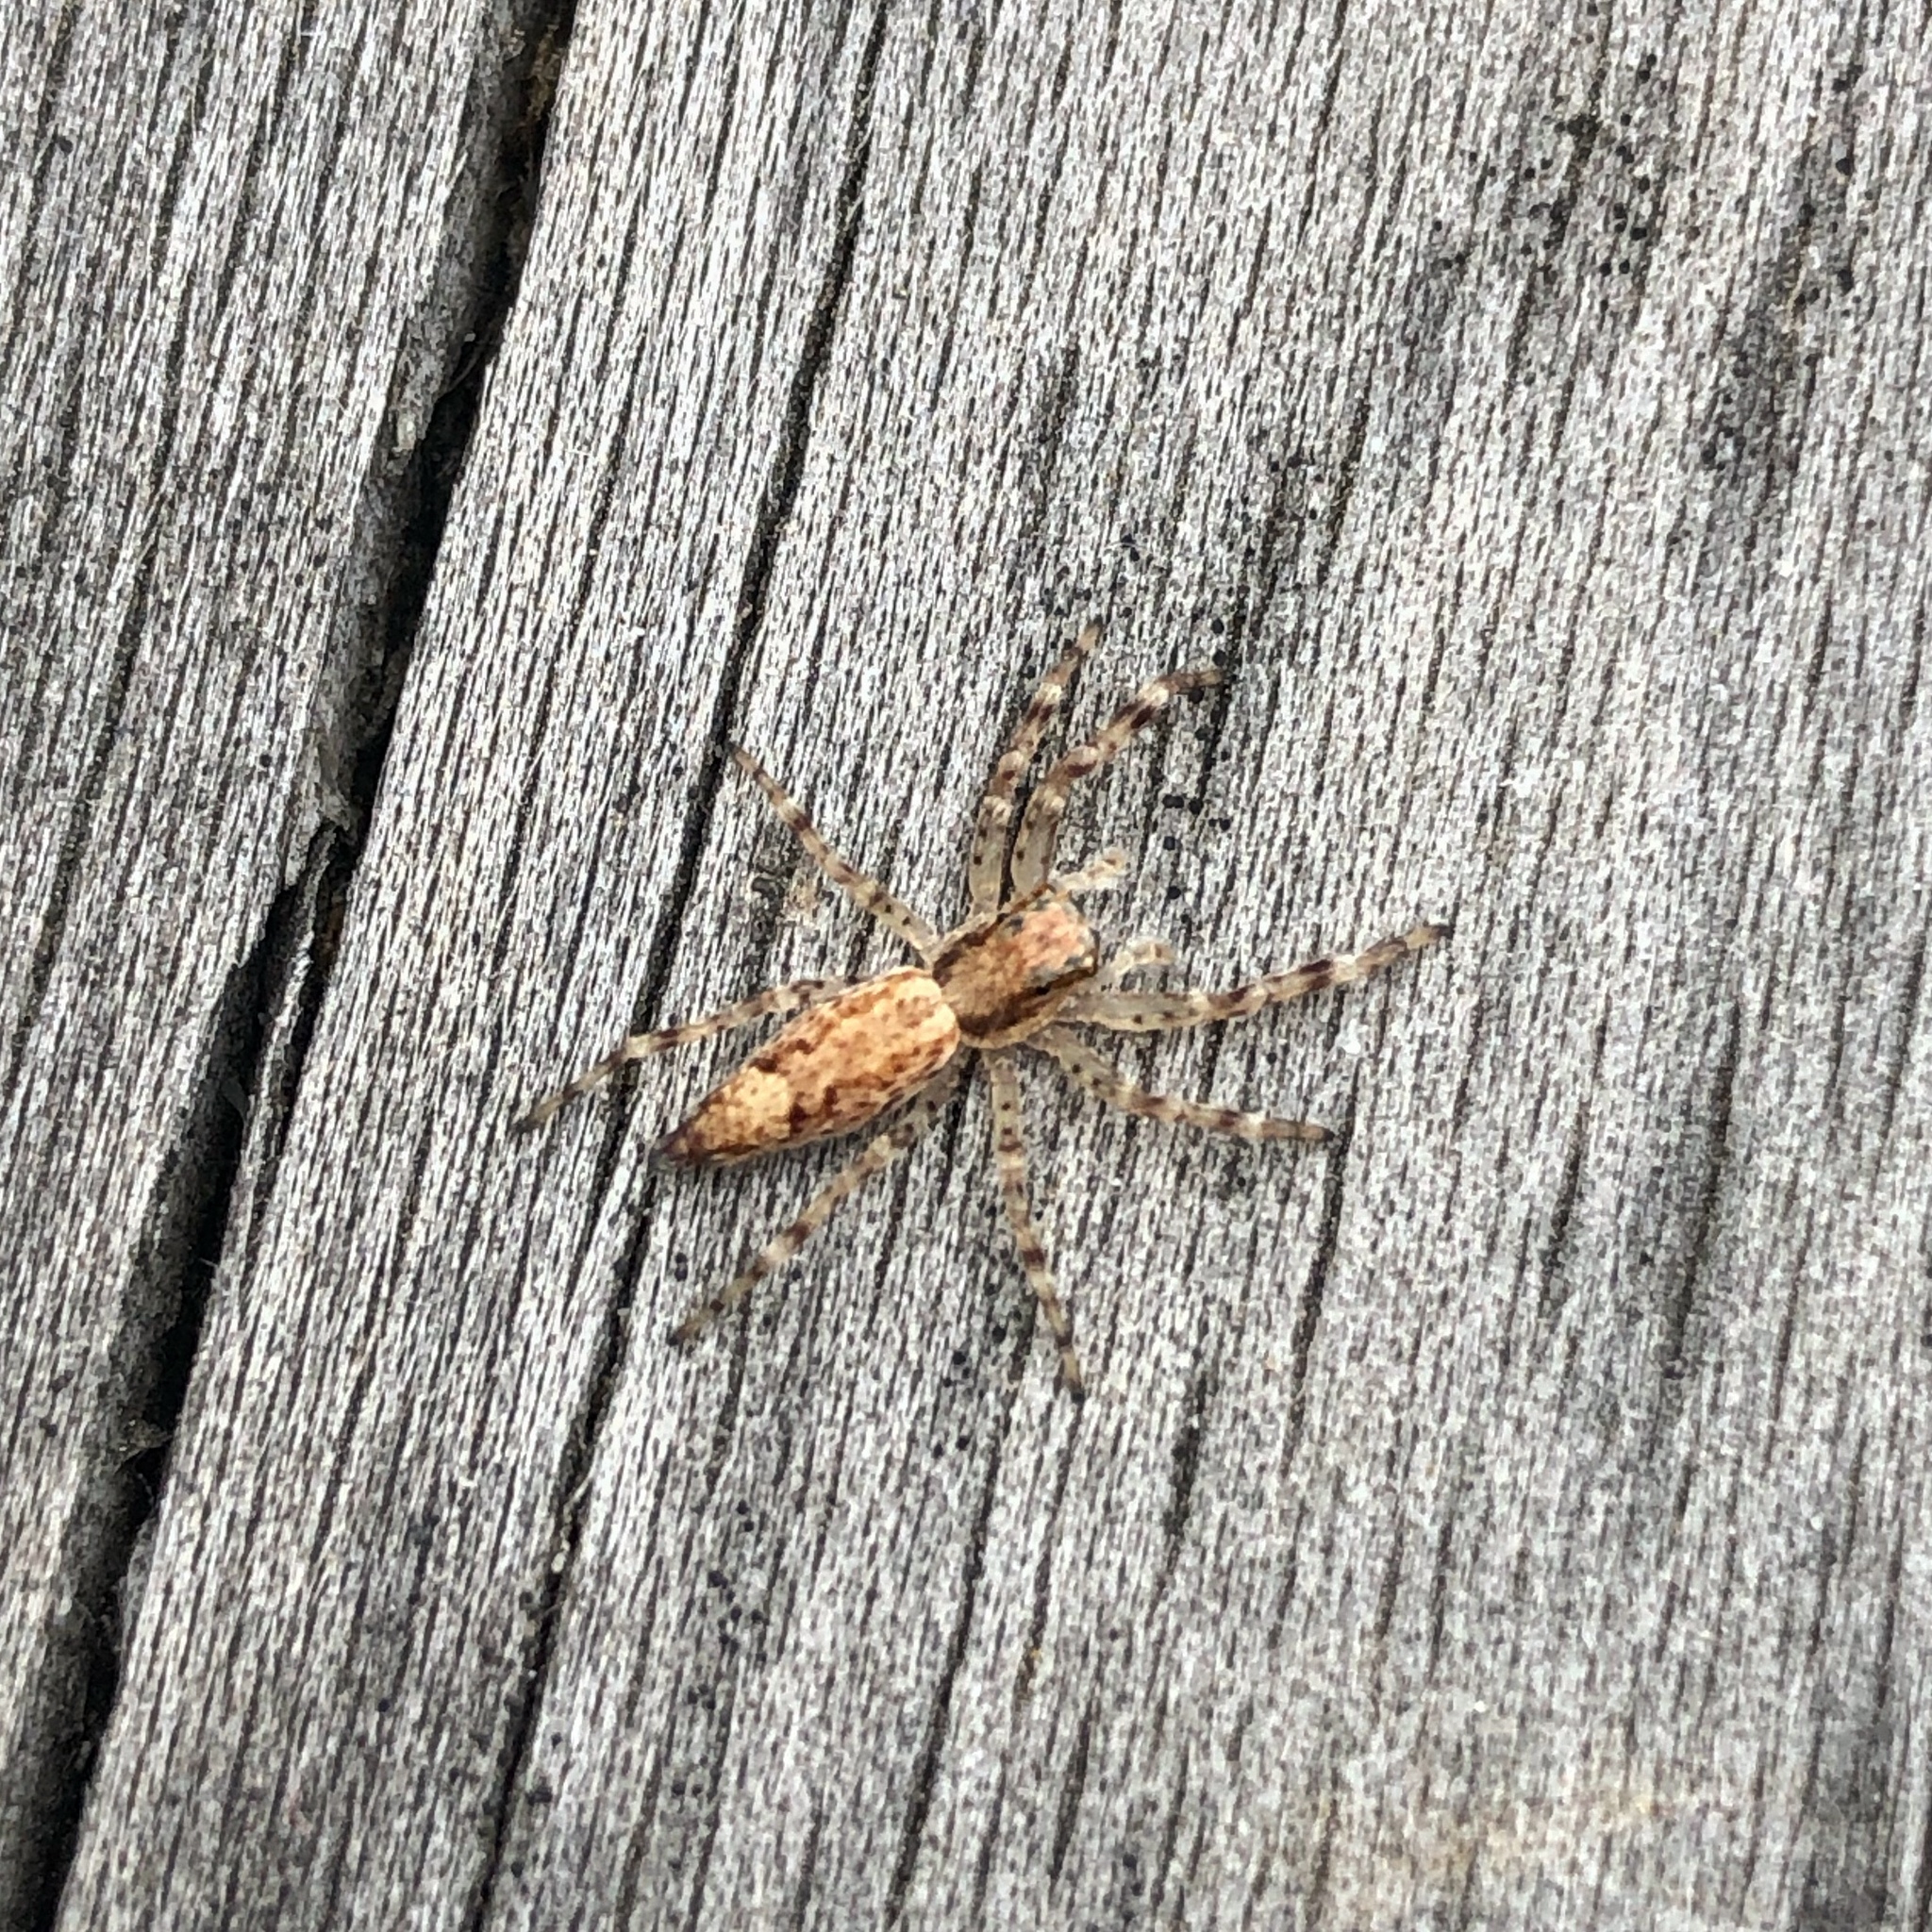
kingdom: Animalia
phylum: Arthropoda
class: Arachnida
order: Araneae
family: Salticidae
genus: Helpis
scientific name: Helpis minitabunda
